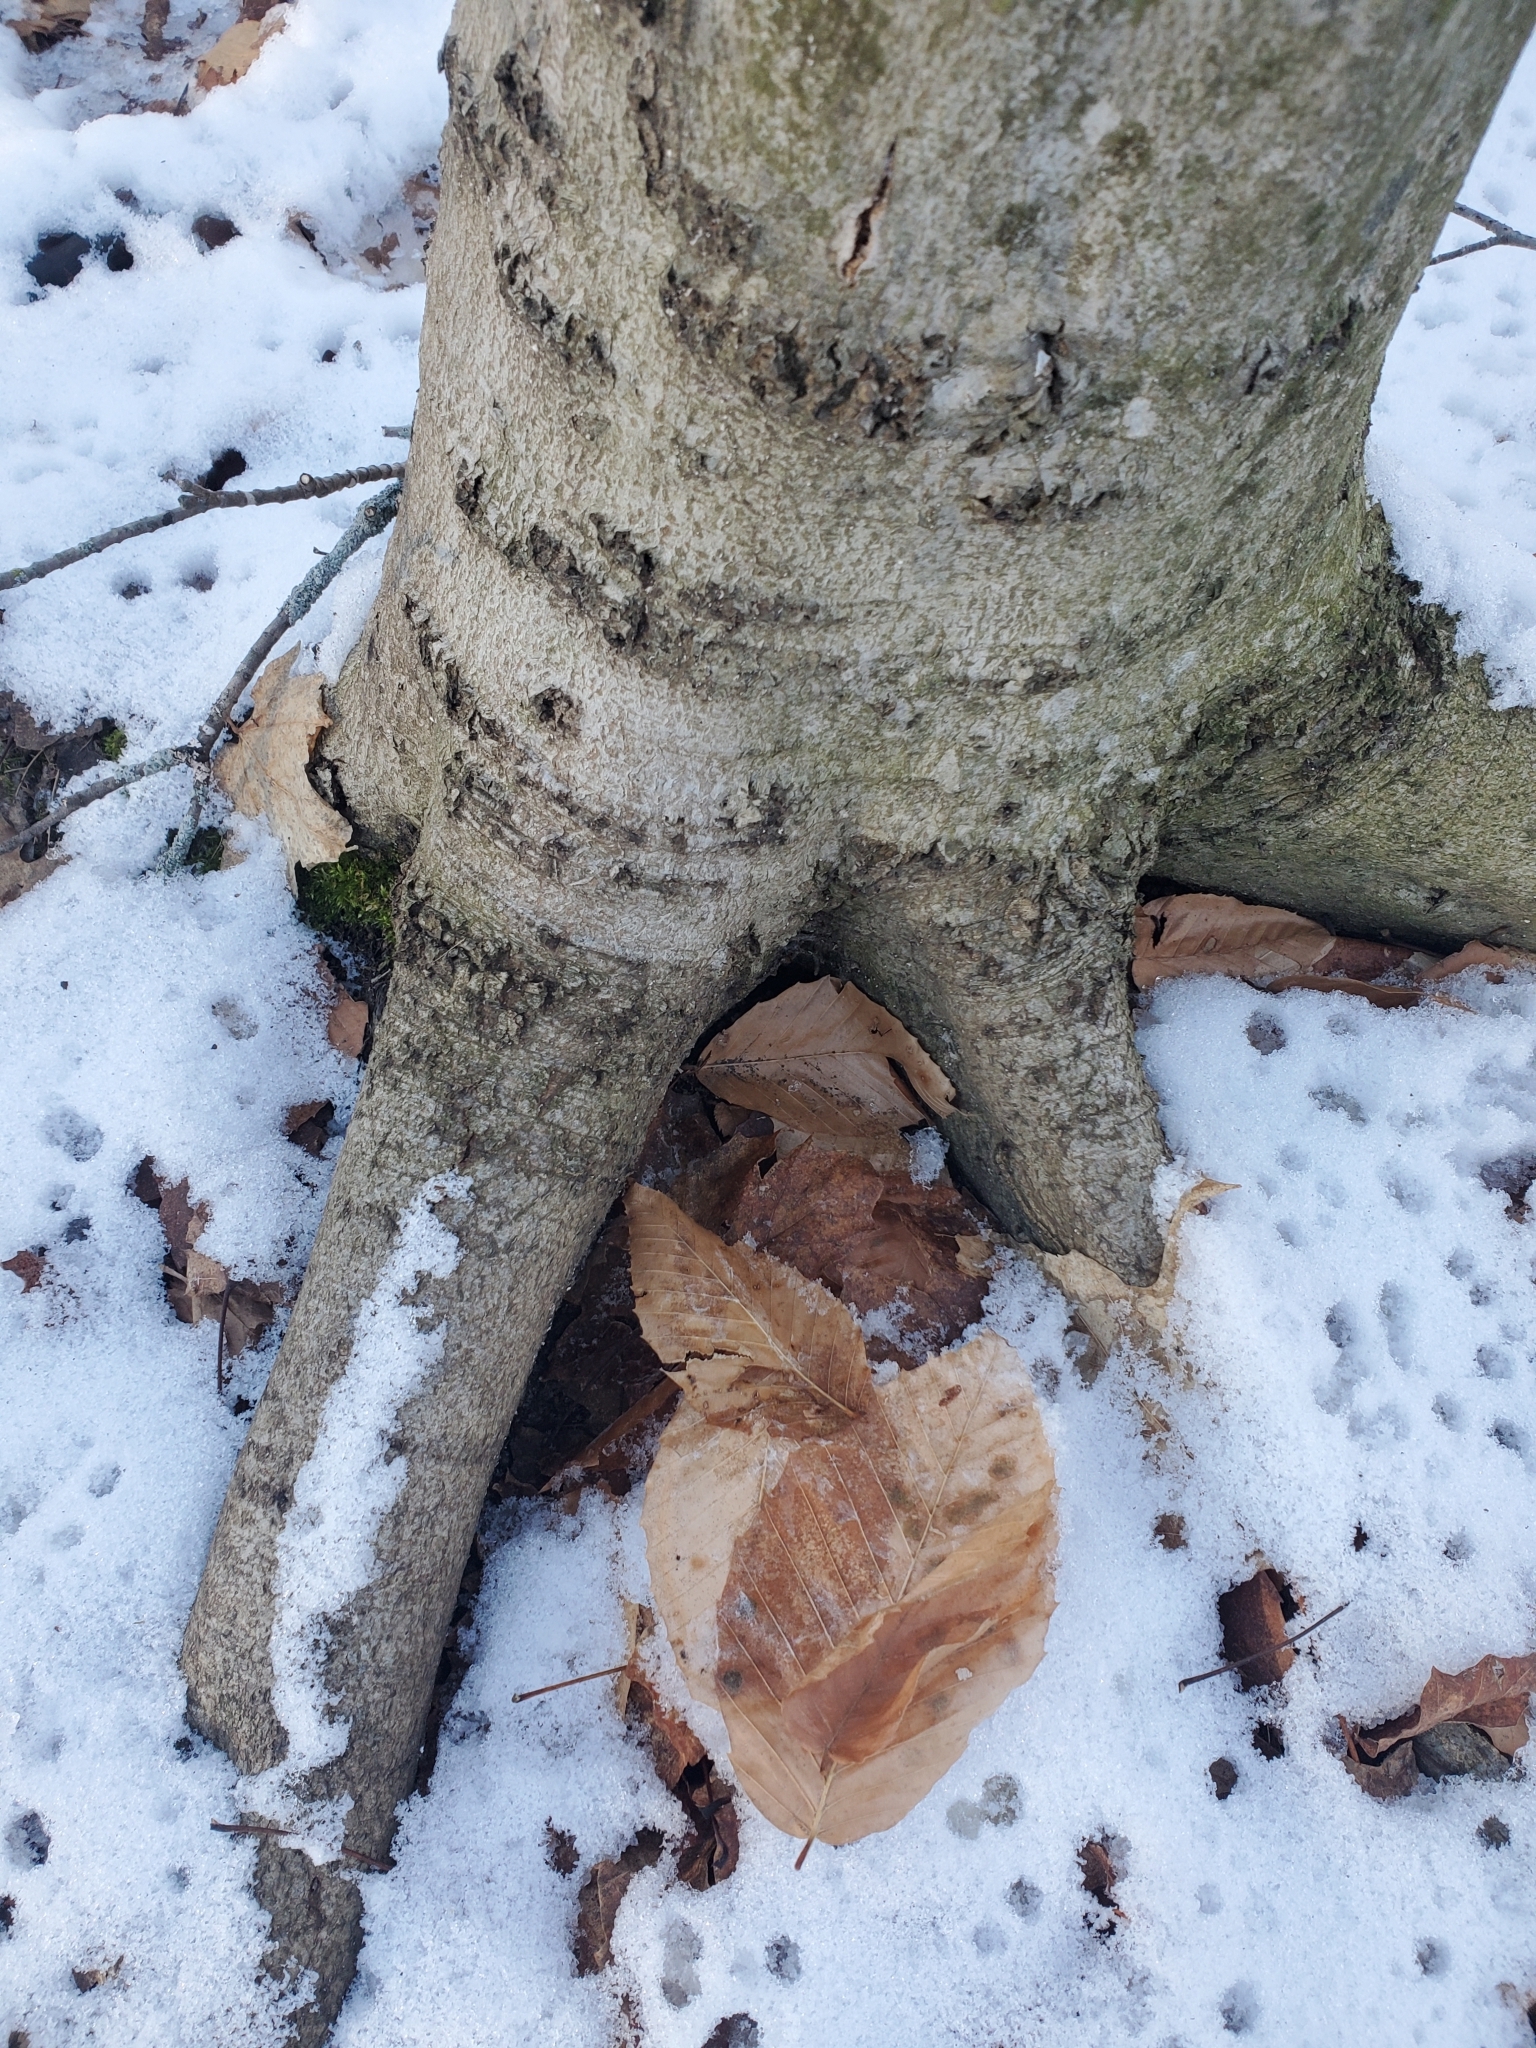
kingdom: Plantae
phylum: Tracheophyta
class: Magnoliopsida
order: Fagales
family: Fagaceae
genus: Fagus
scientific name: Fagus grandifolia
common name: American beech
